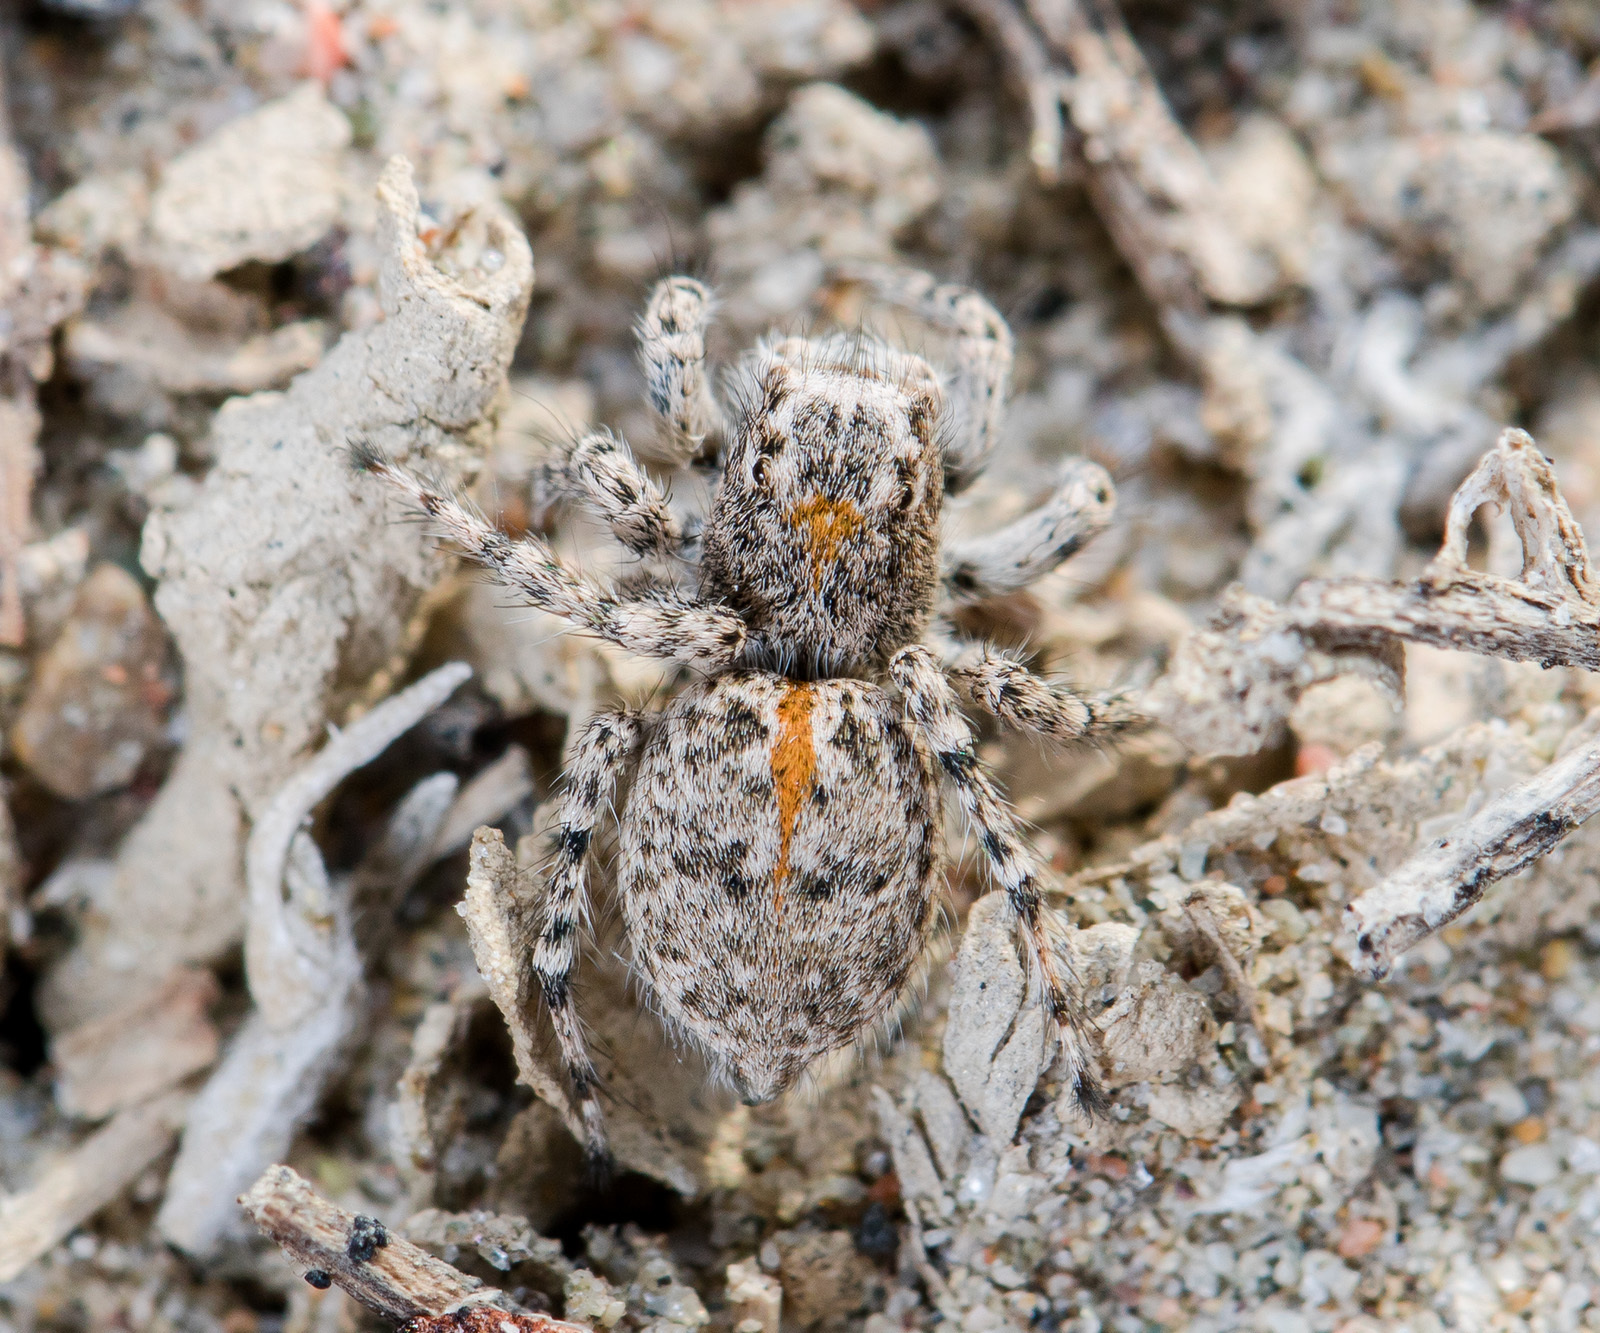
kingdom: Animalia
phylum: Arthropoda
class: Arachnida
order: Araneae
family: Salticidae
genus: Aelurillus
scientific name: Aelurillus dubatolovi
